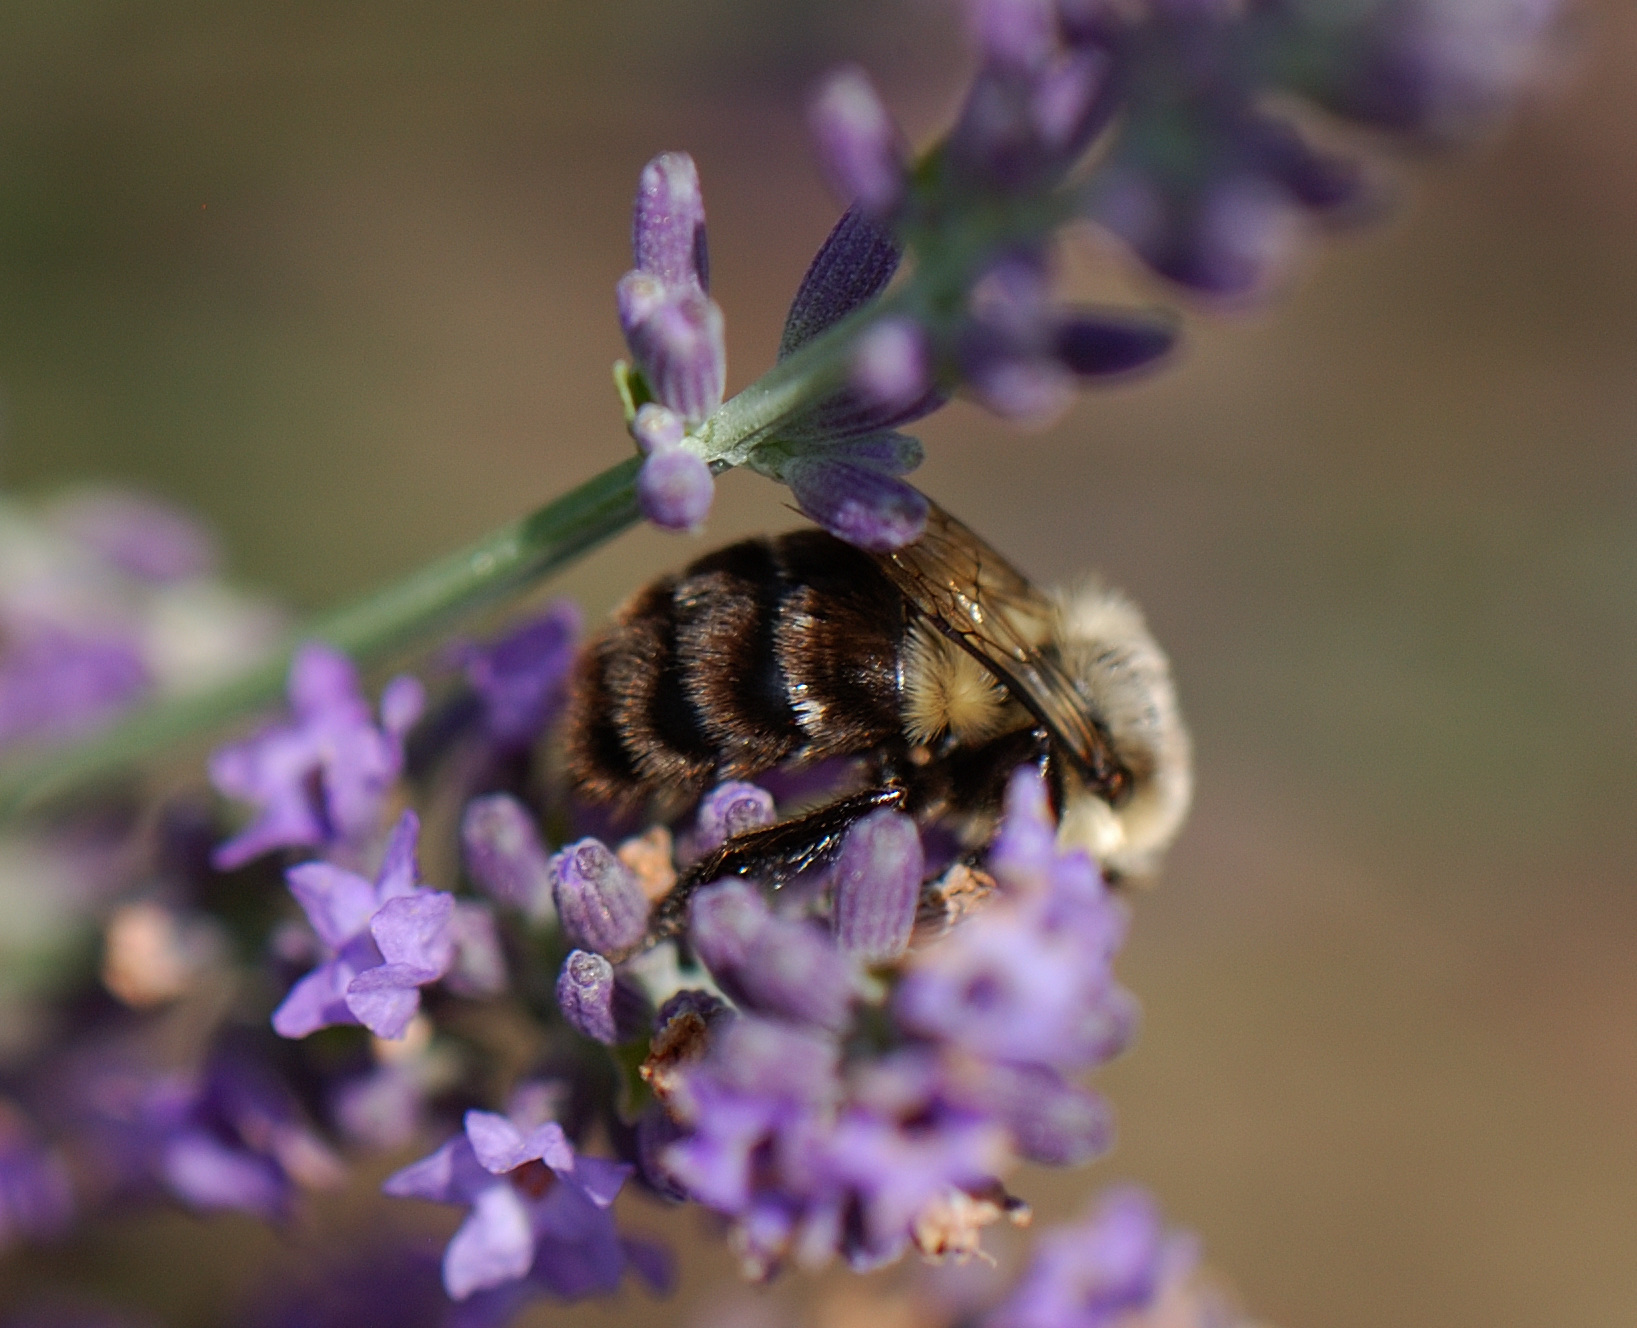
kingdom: Animalia
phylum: Arthropoda
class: Insecta
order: Hymenoptera
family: Apidae
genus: Bombus
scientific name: Bombus impatiens
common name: Common eastern bumble bee
